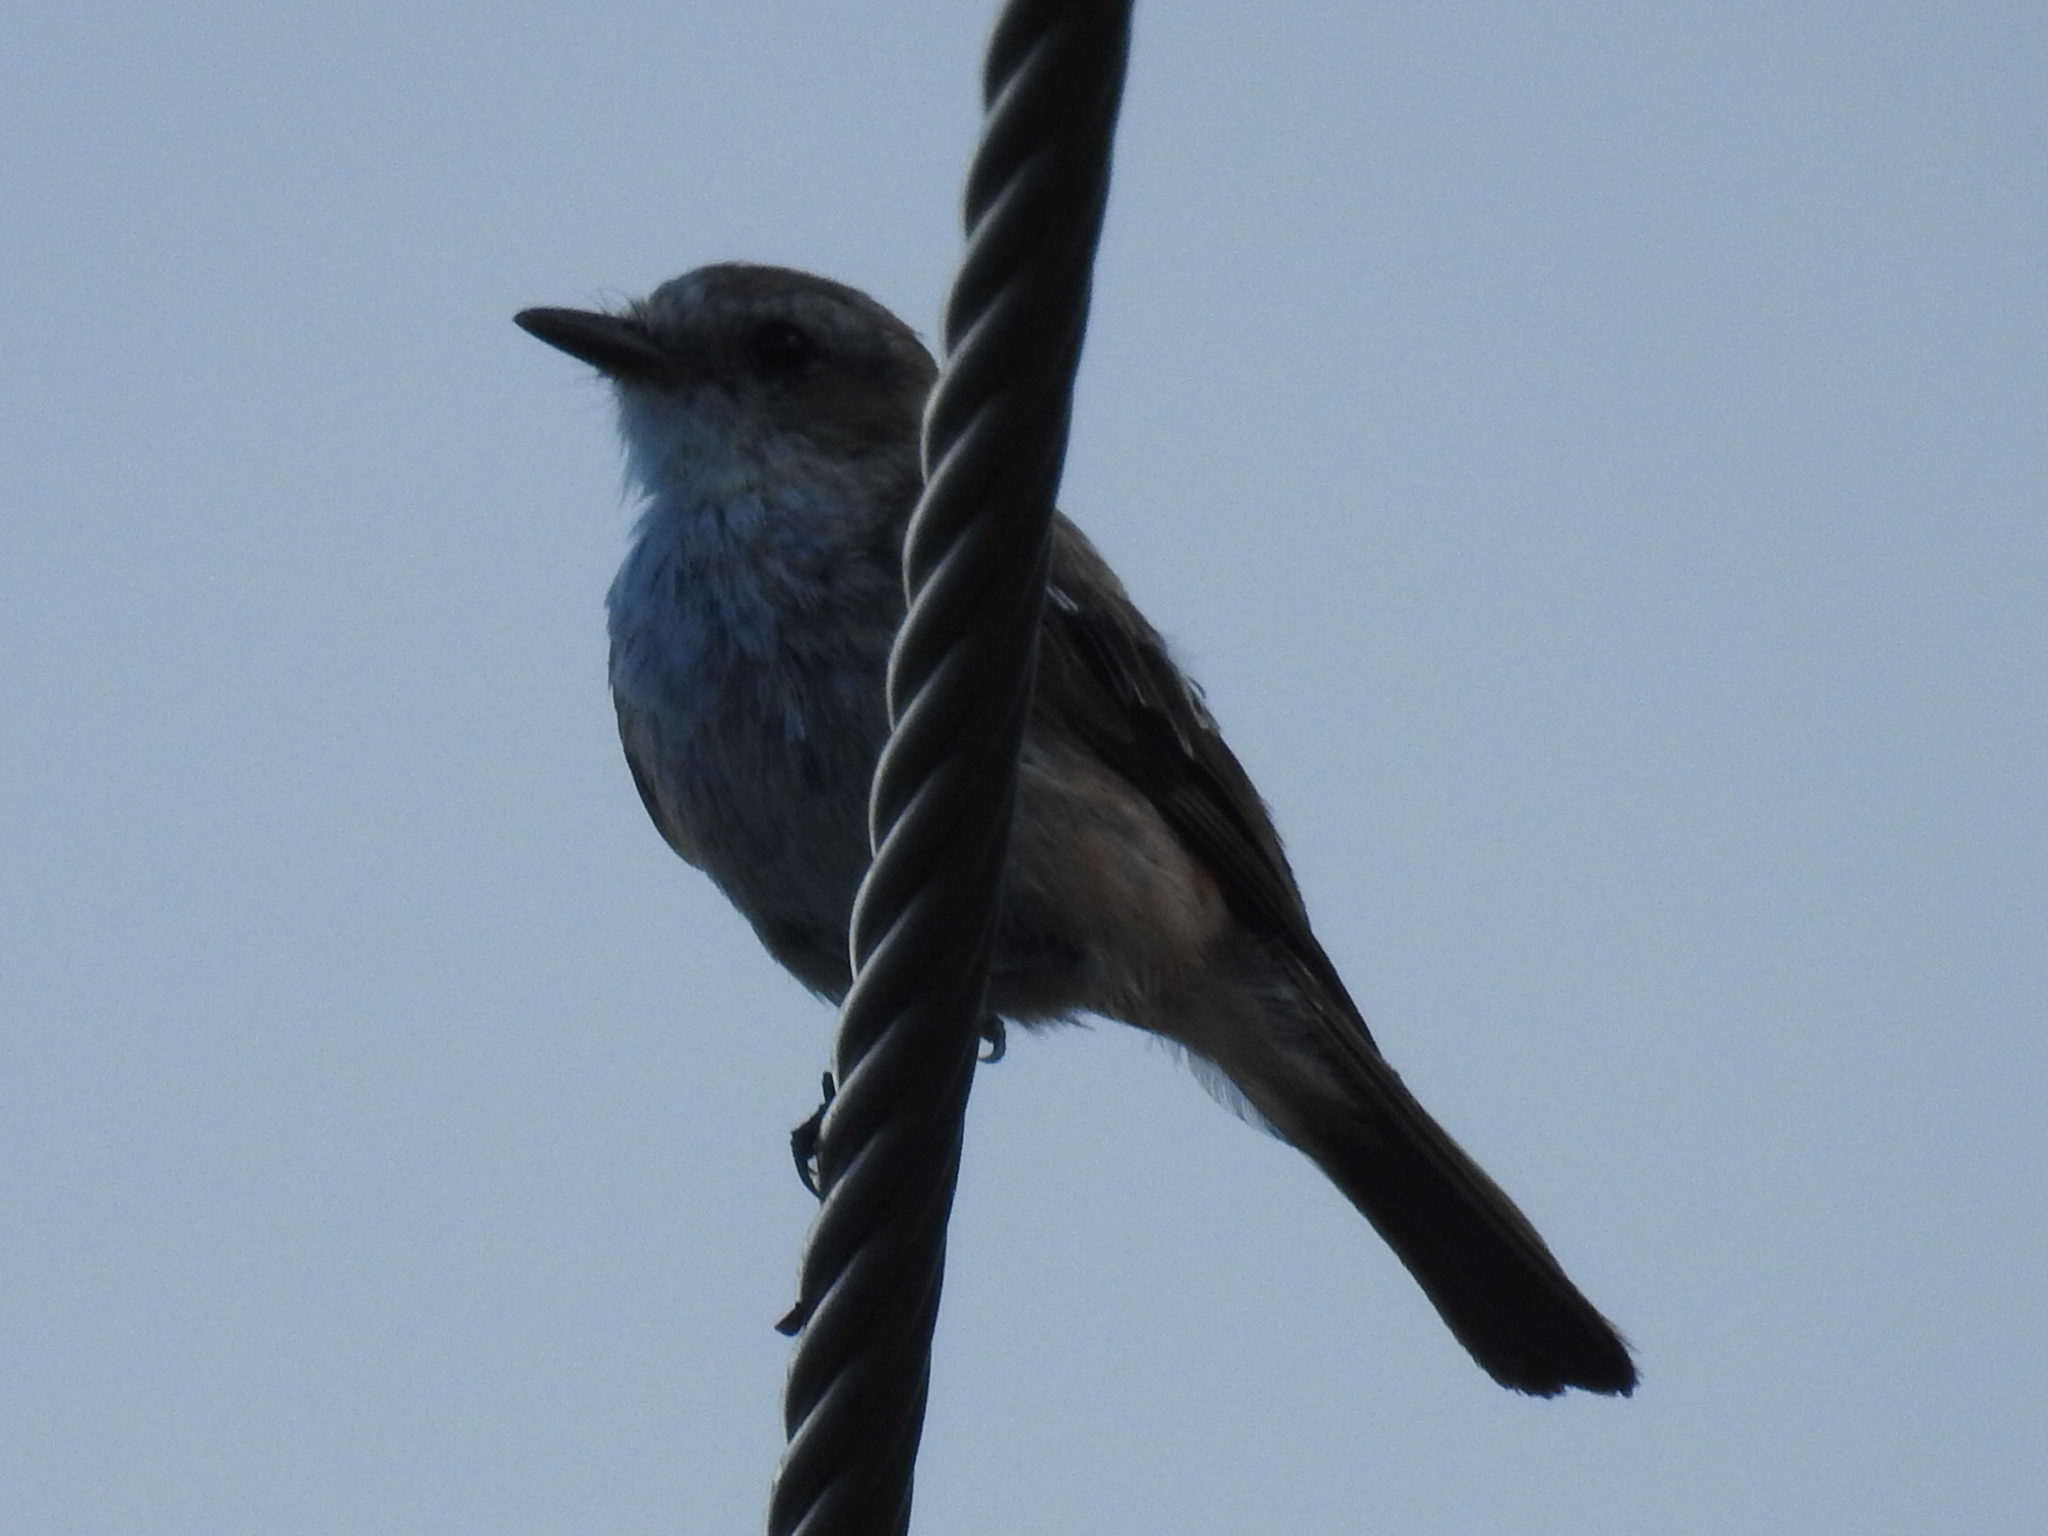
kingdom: Animalia
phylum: Chordata
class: Aves
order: Passeriformes
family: Tyrannidae
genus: Pyrocephalus
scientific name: Pyrocephalus rubinus
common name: Vermilion flycatcher
